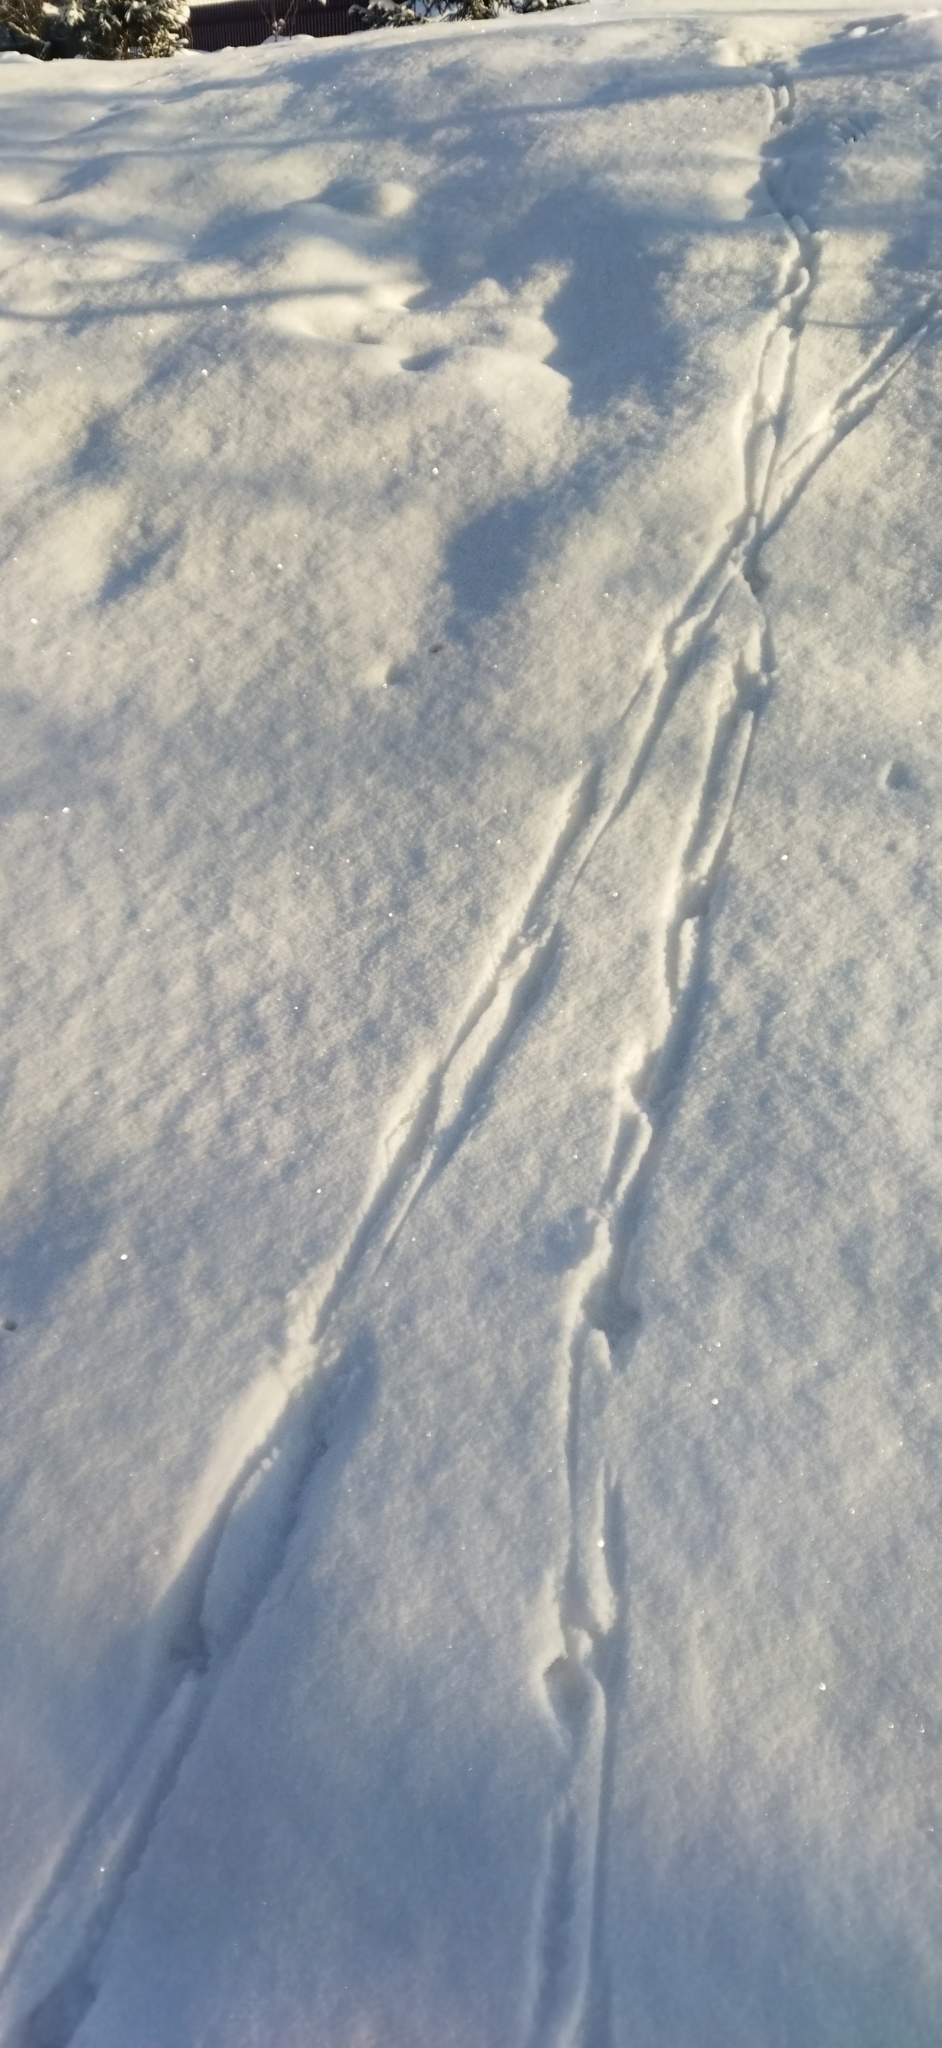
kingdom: Animalia
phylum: Chordata
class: Aves
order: Galliformes
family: Phasianidae
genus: Perdix
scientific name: Perdix perdix
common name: Grey partridge
